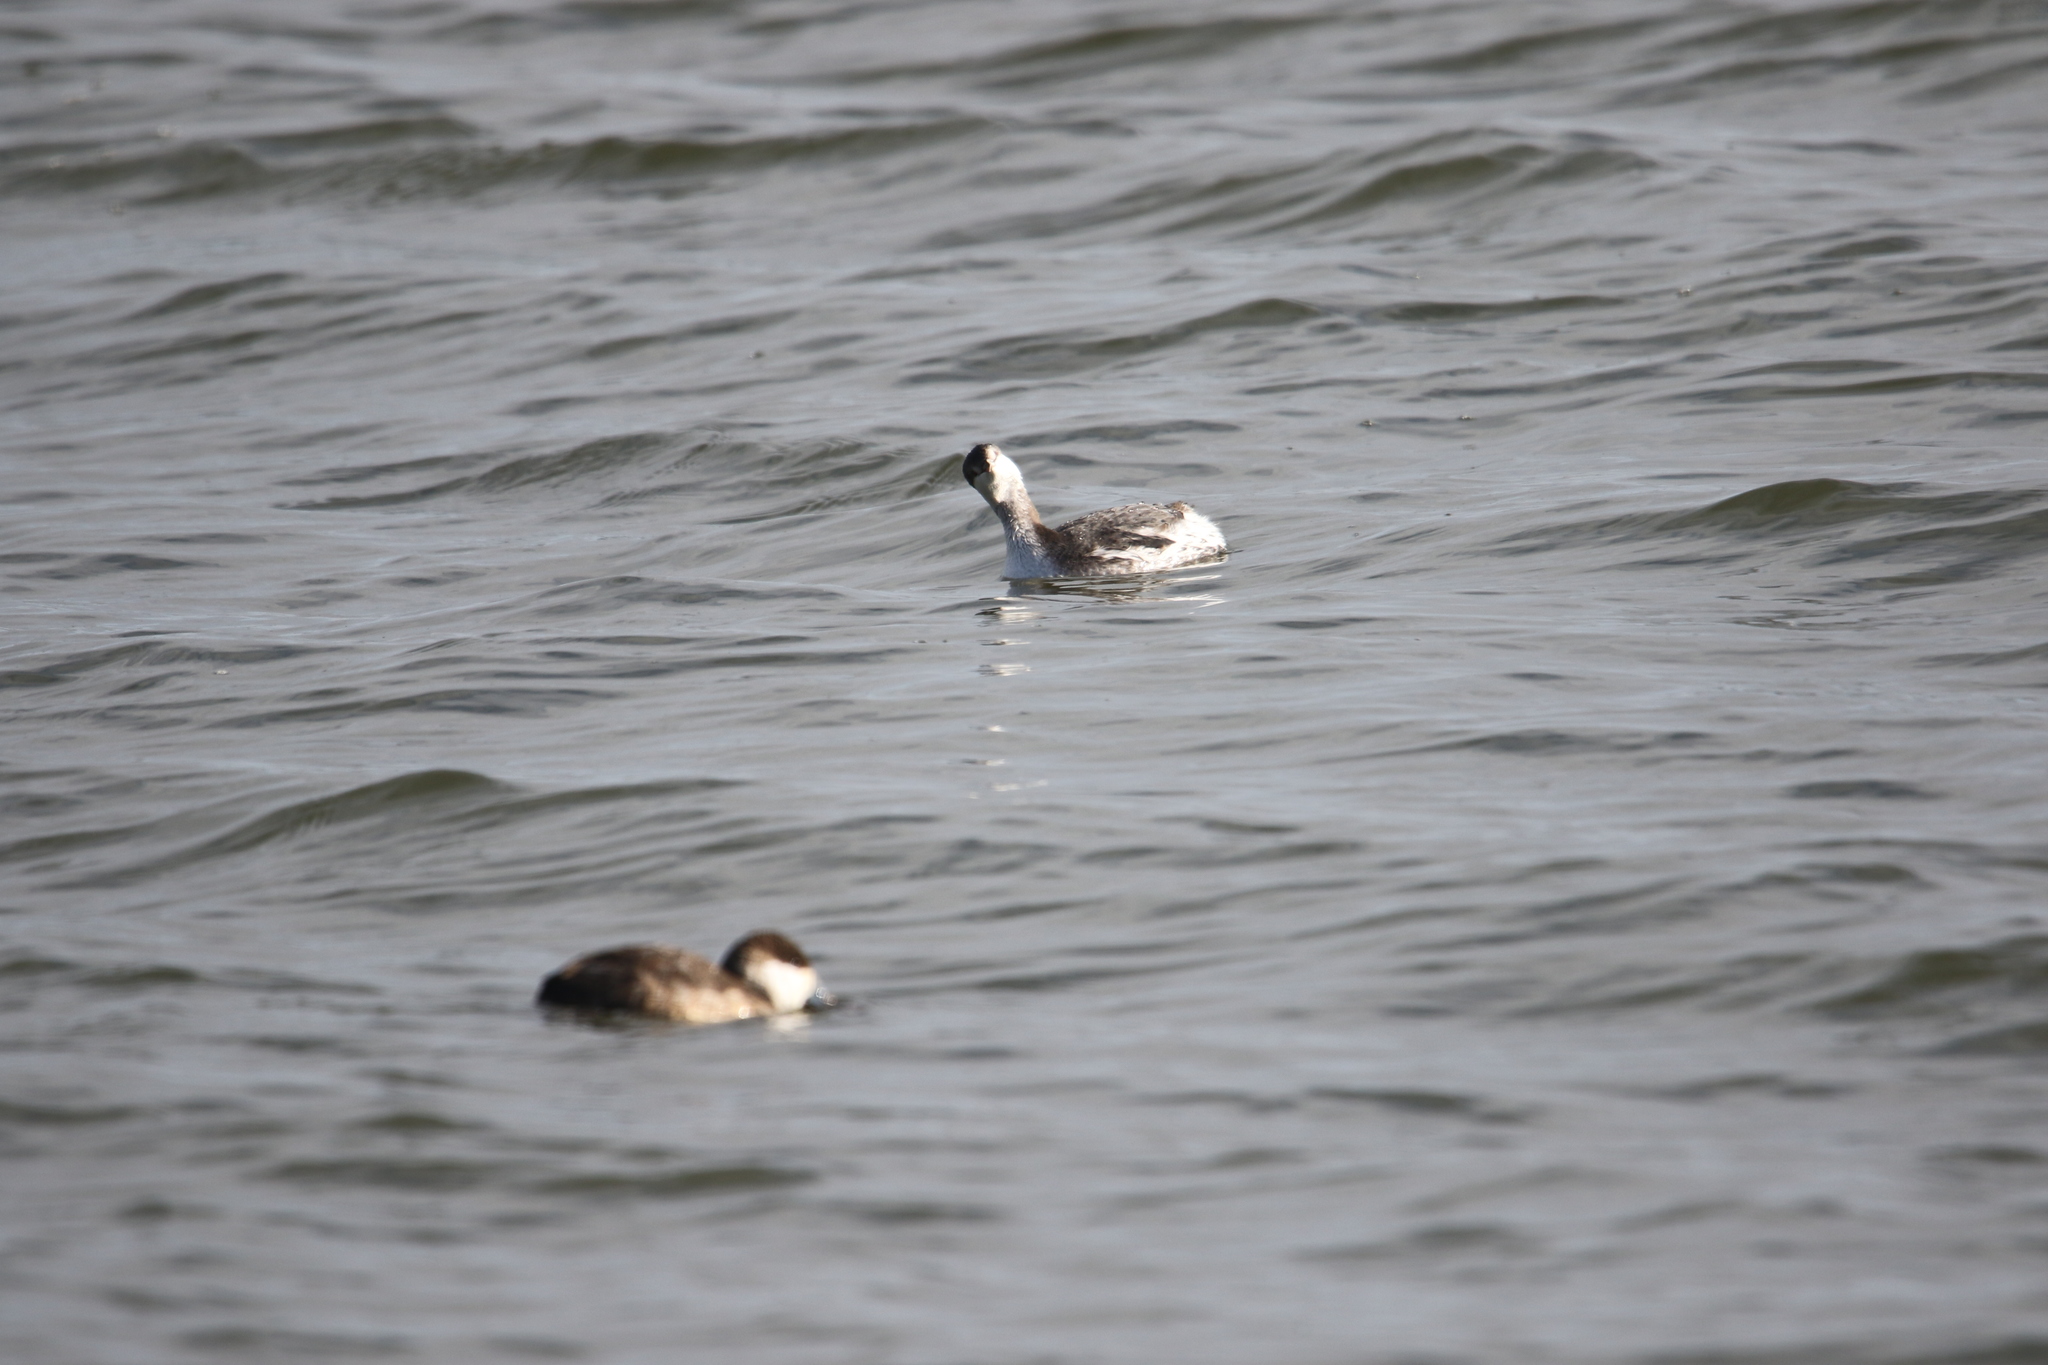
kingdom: Animalia
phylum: Chordata
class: Aves
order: Podicipediformes
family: Podicipedidae
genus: Podiceps
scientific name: Podiceps auritus
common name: Horned grebe
